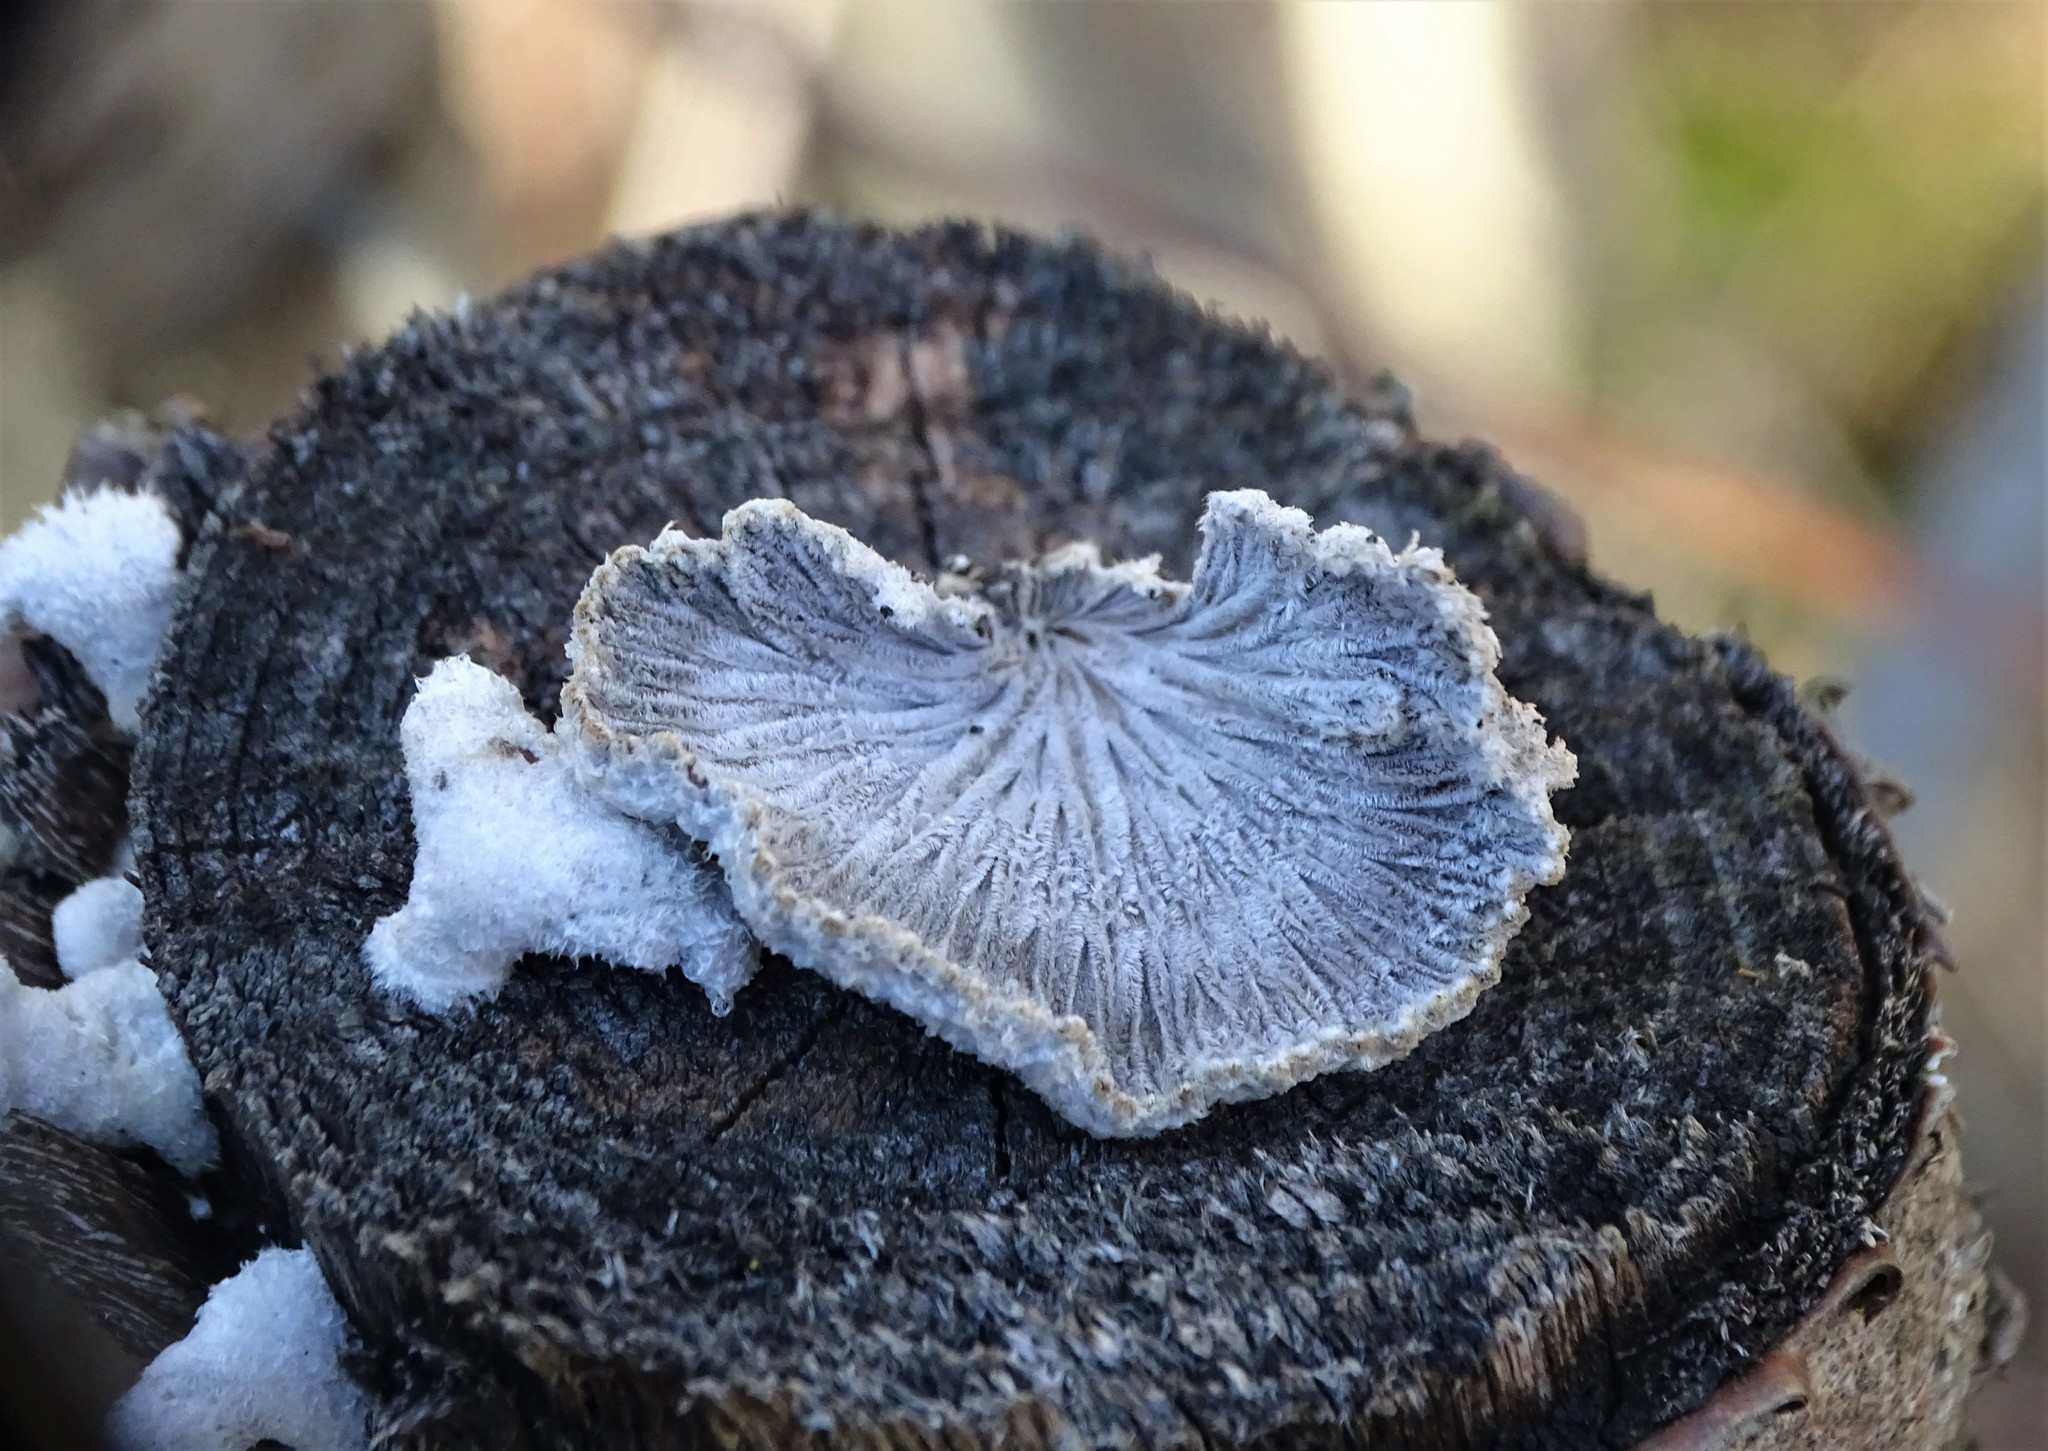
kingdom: Fungi
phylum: Basidiomycota
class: Agaricomycetes
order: Agaricales
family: Schizophyllaceae
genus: Schizophyllum
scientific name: Schizophyllum commune
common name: Common porecrust
